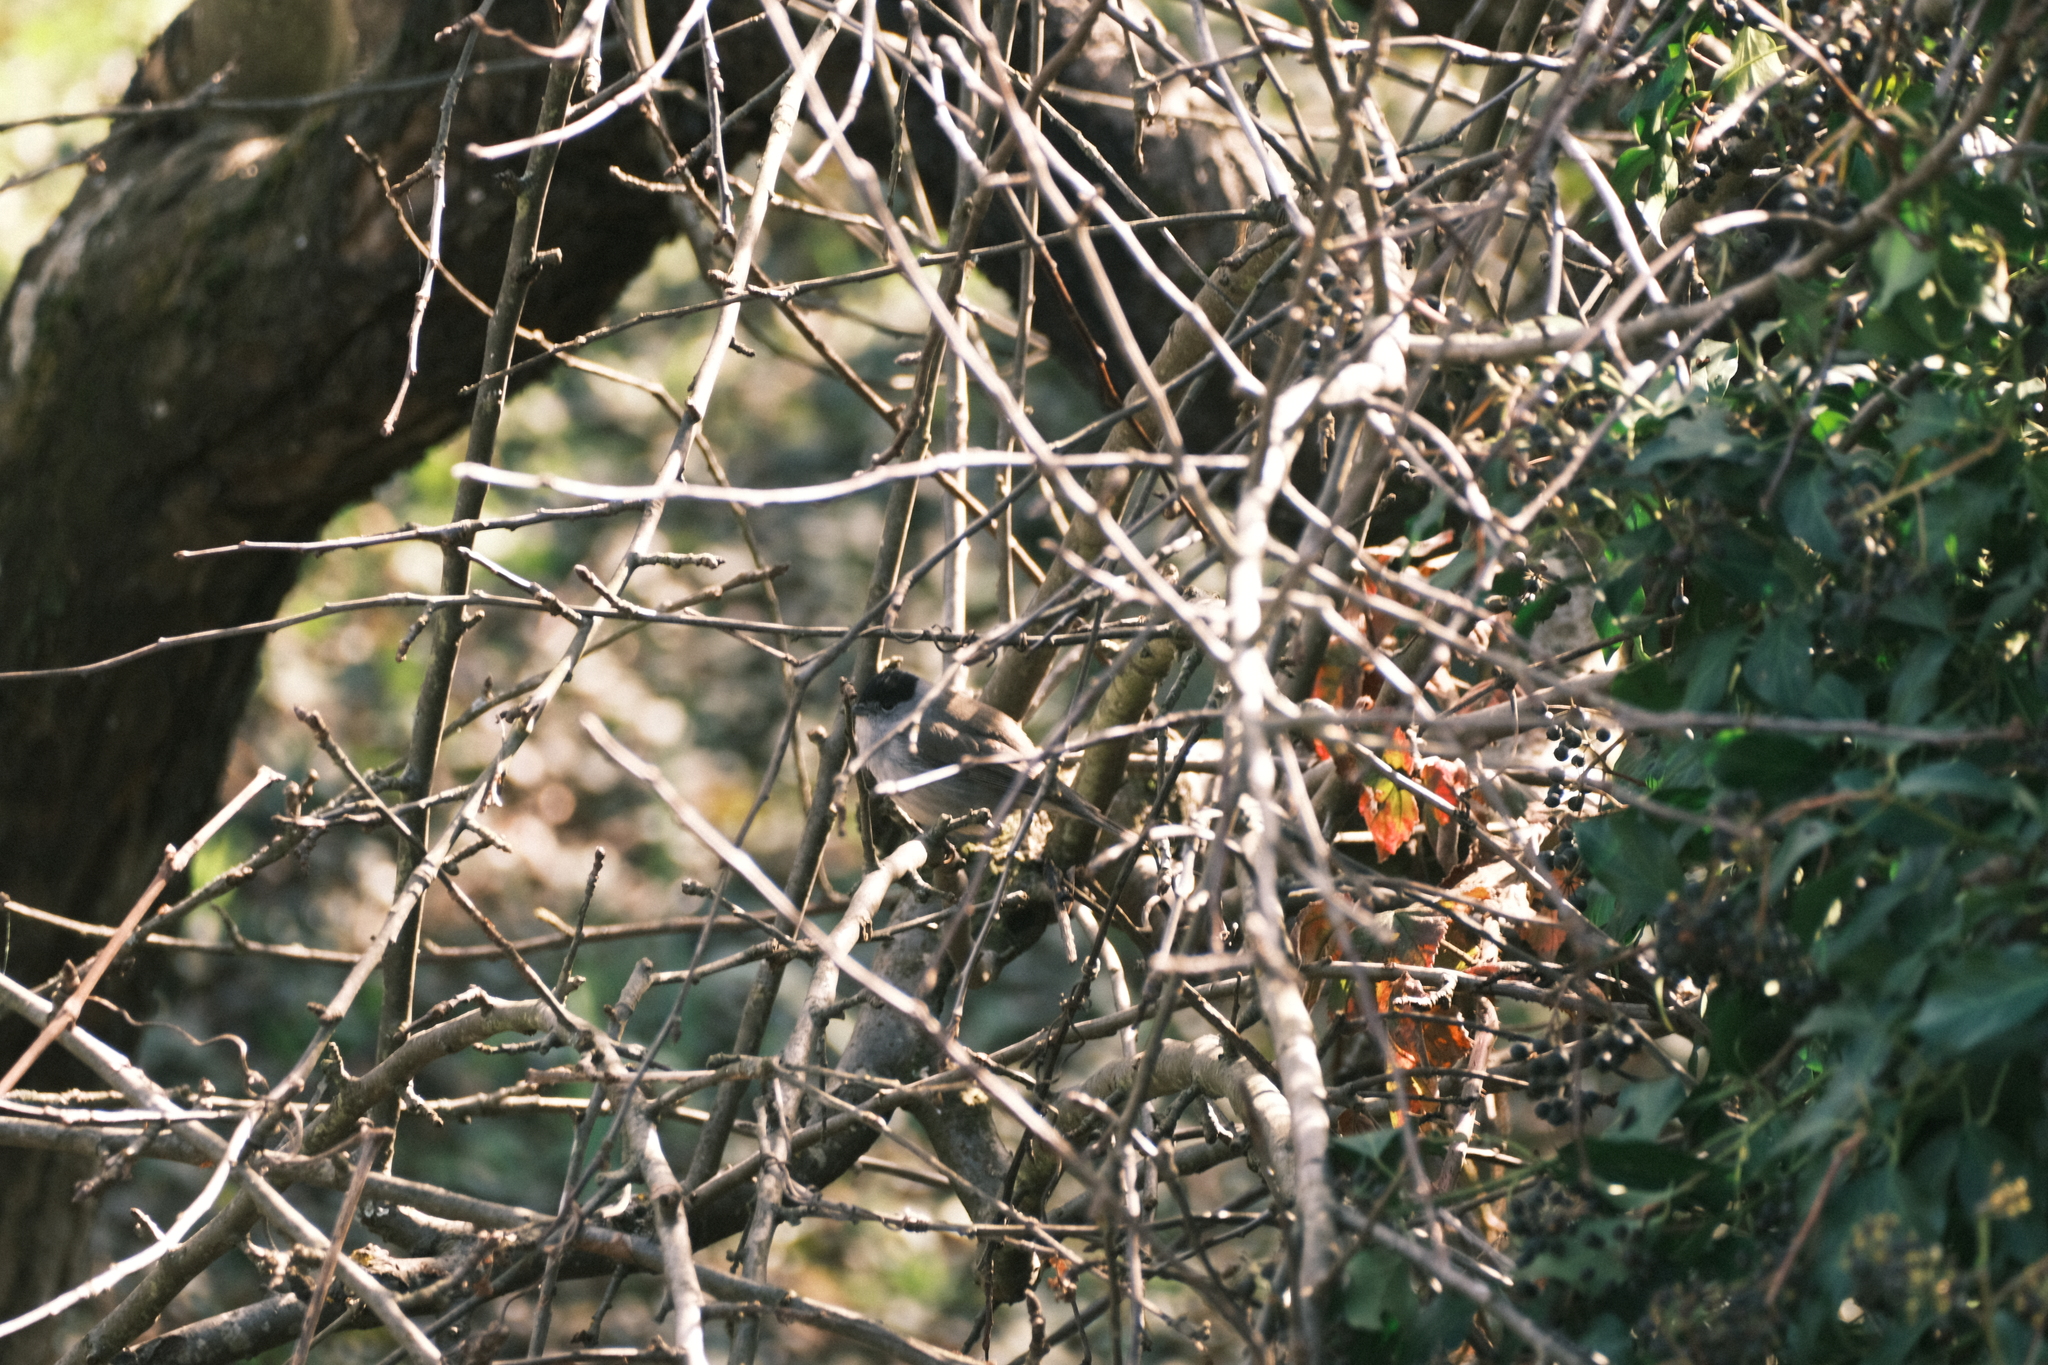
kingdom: Animalia
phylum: Chordata
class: Aves
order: Passeriformes
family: Sylviidae
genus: Sylvia
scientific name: Sylvia atricapilla
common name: Eurasian blackcap
